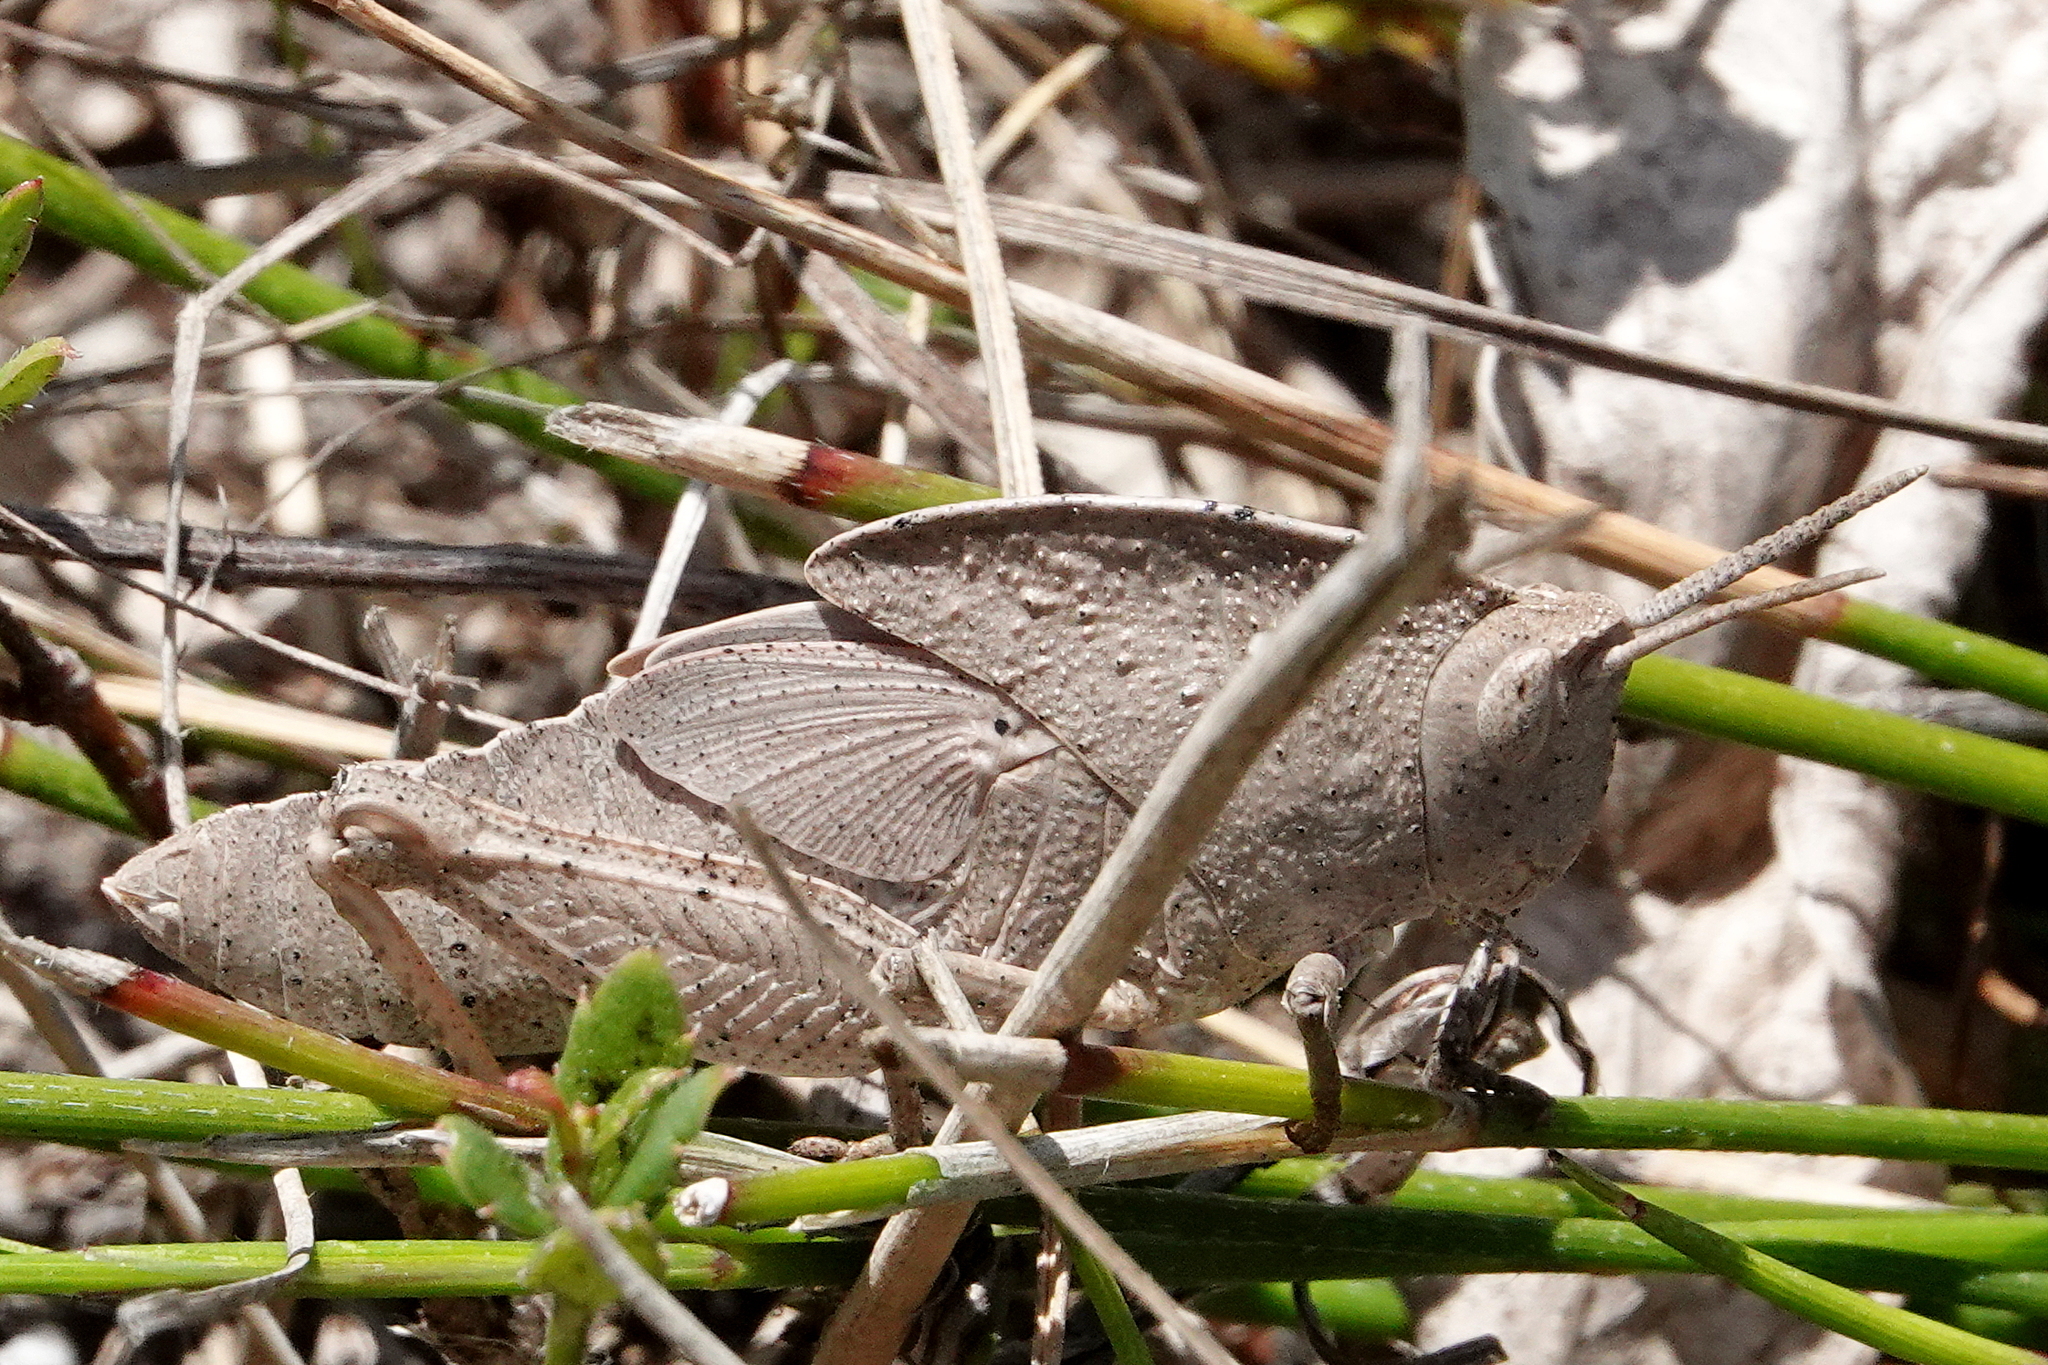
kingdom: Animalia
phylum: Arthropoda
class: Insecta
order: Orthoptera
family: Acrididae
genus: Goniaea
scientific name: Goniaea australasiae
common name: Gumleaf grasshopper
